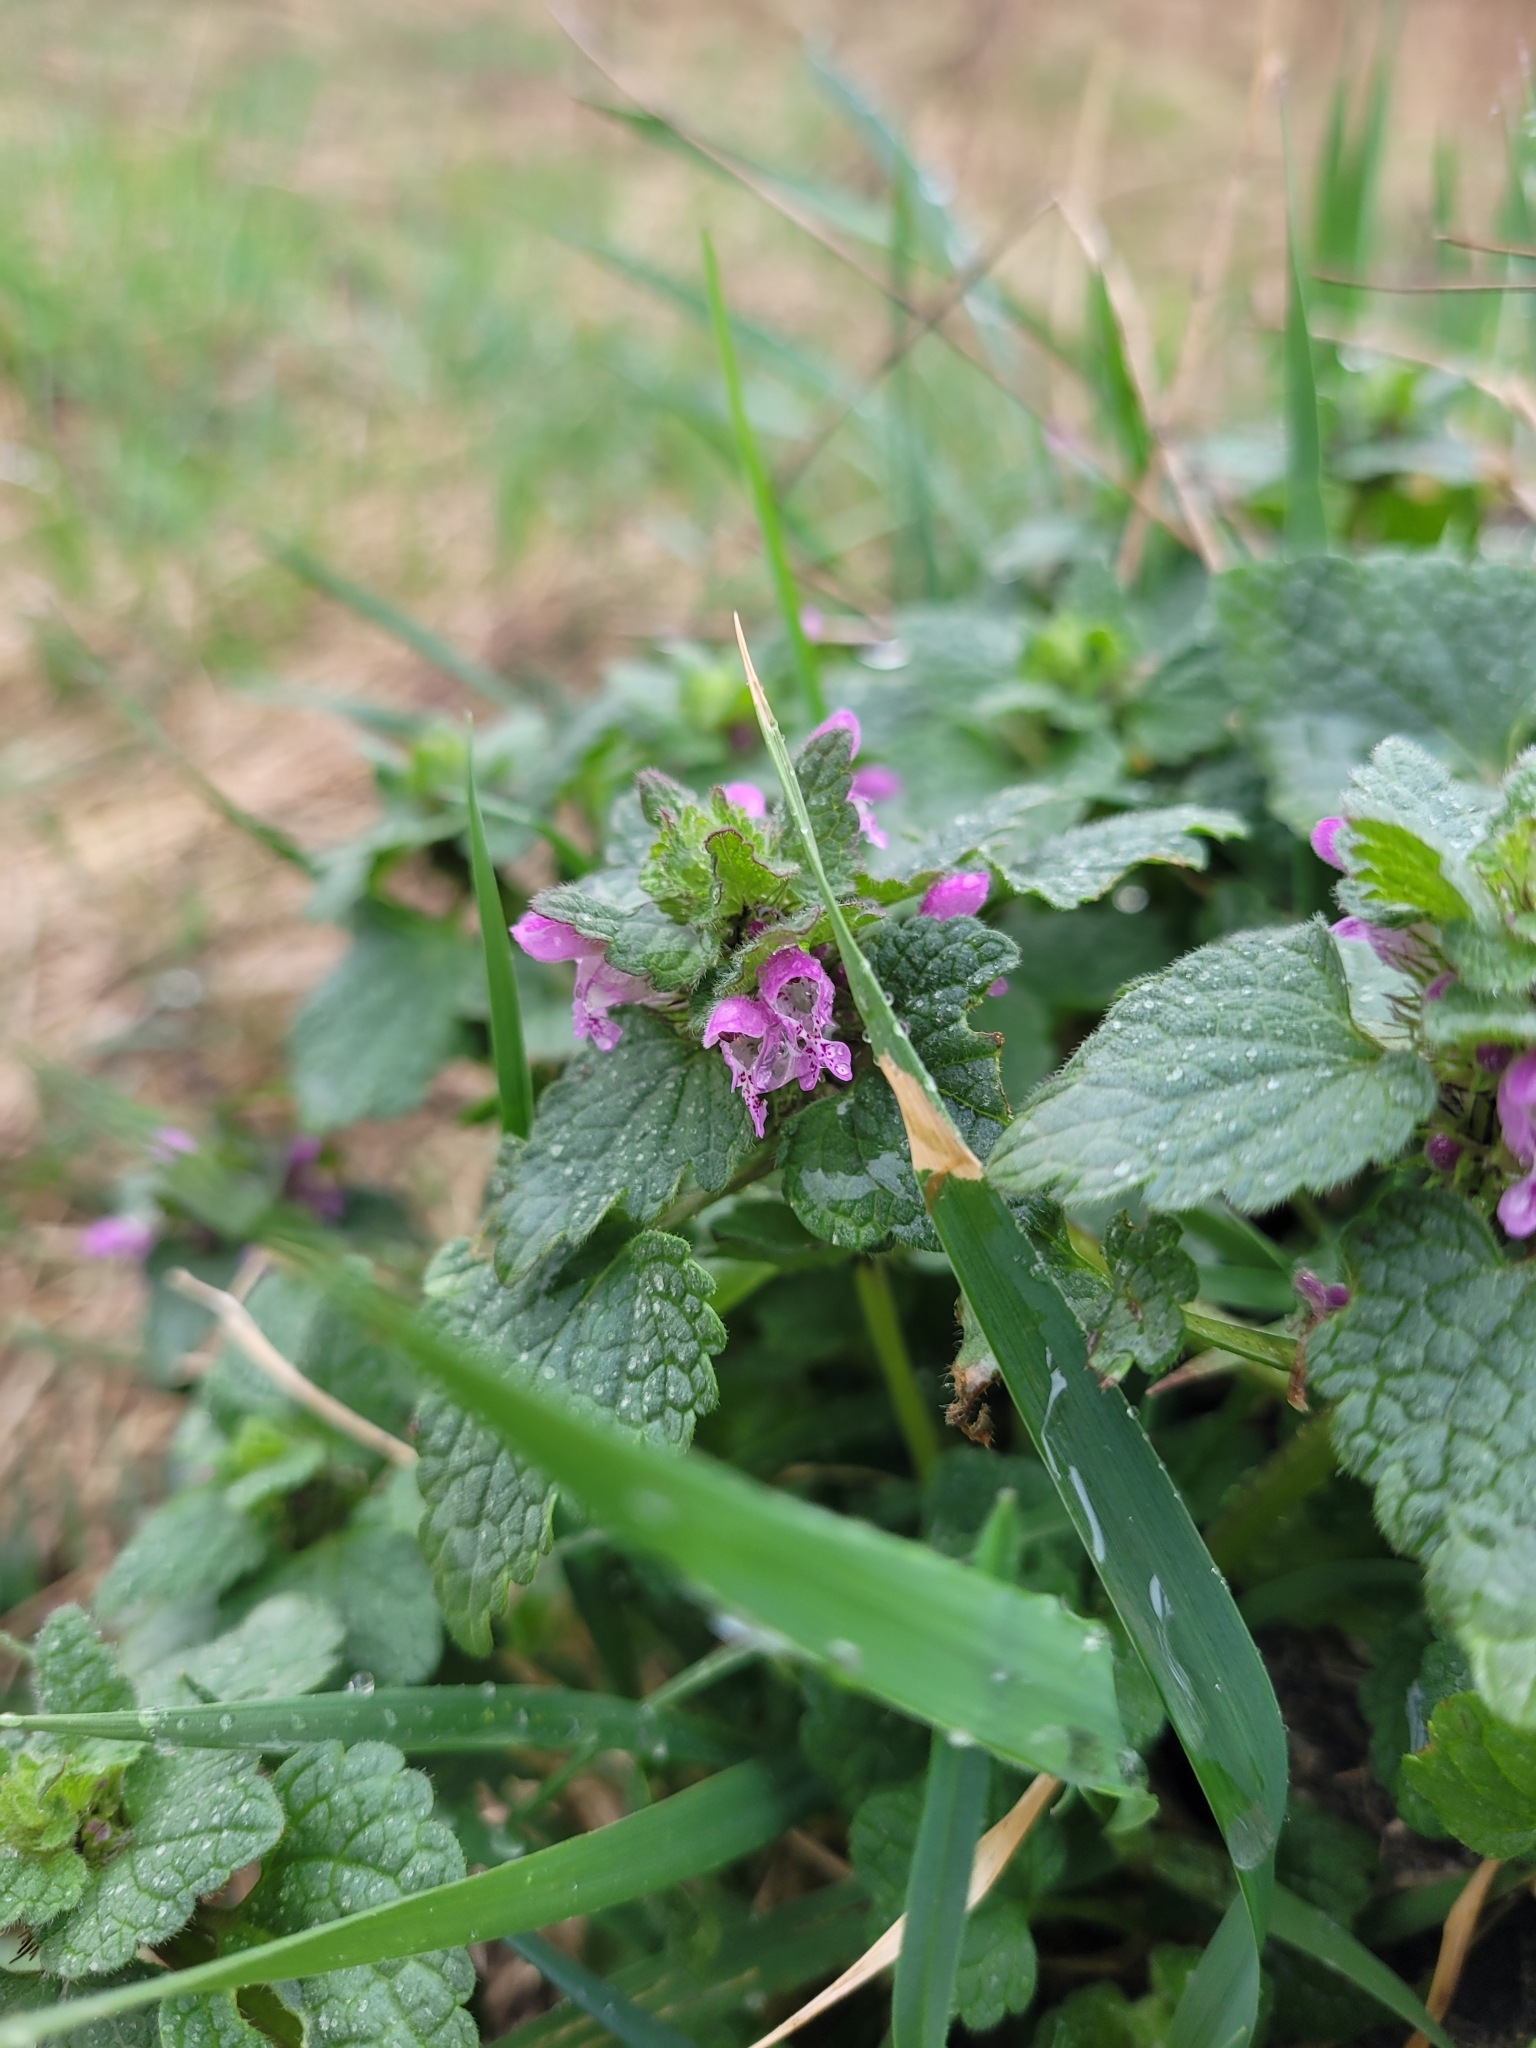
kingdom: Plantae
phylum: Tracheophyta
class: Magnoliopsida
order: Lamiales
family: Lamiaceae
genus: Lamium
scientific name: Lamium purpureum
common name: Red dead-nettle
